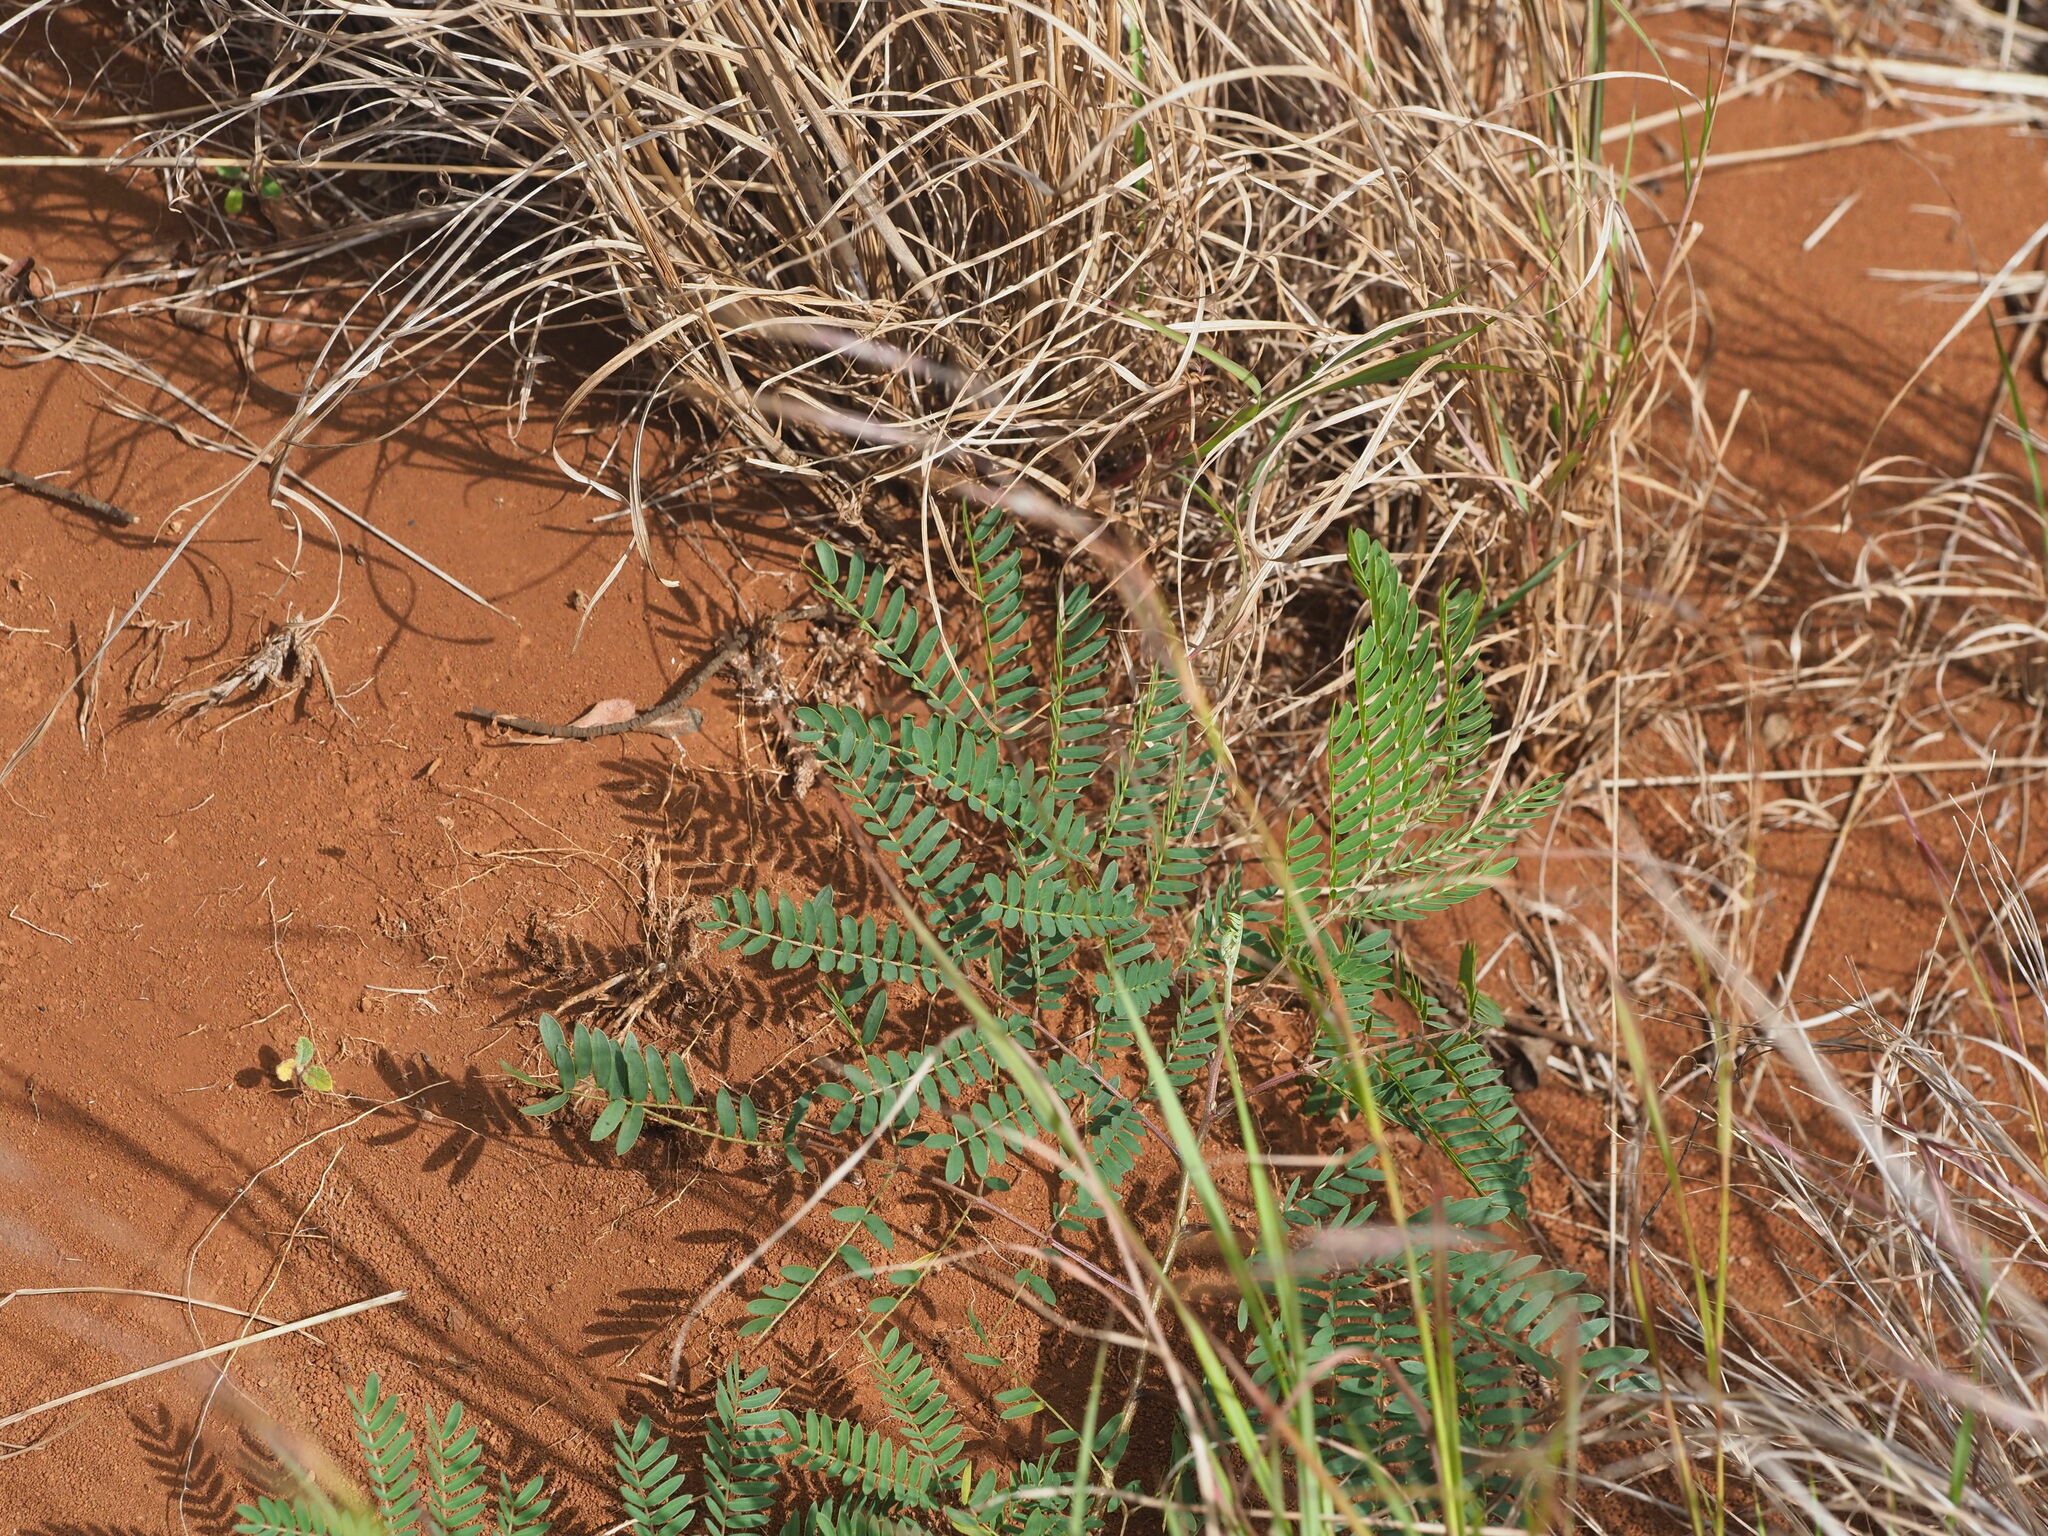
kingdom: Plantae
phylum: Tracheophyta
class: Magnoliopsida
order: Fabales
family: Fabaceae
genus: Chamaecrista
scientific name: Chamaecrista nictitans
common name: Sensitive cassia
